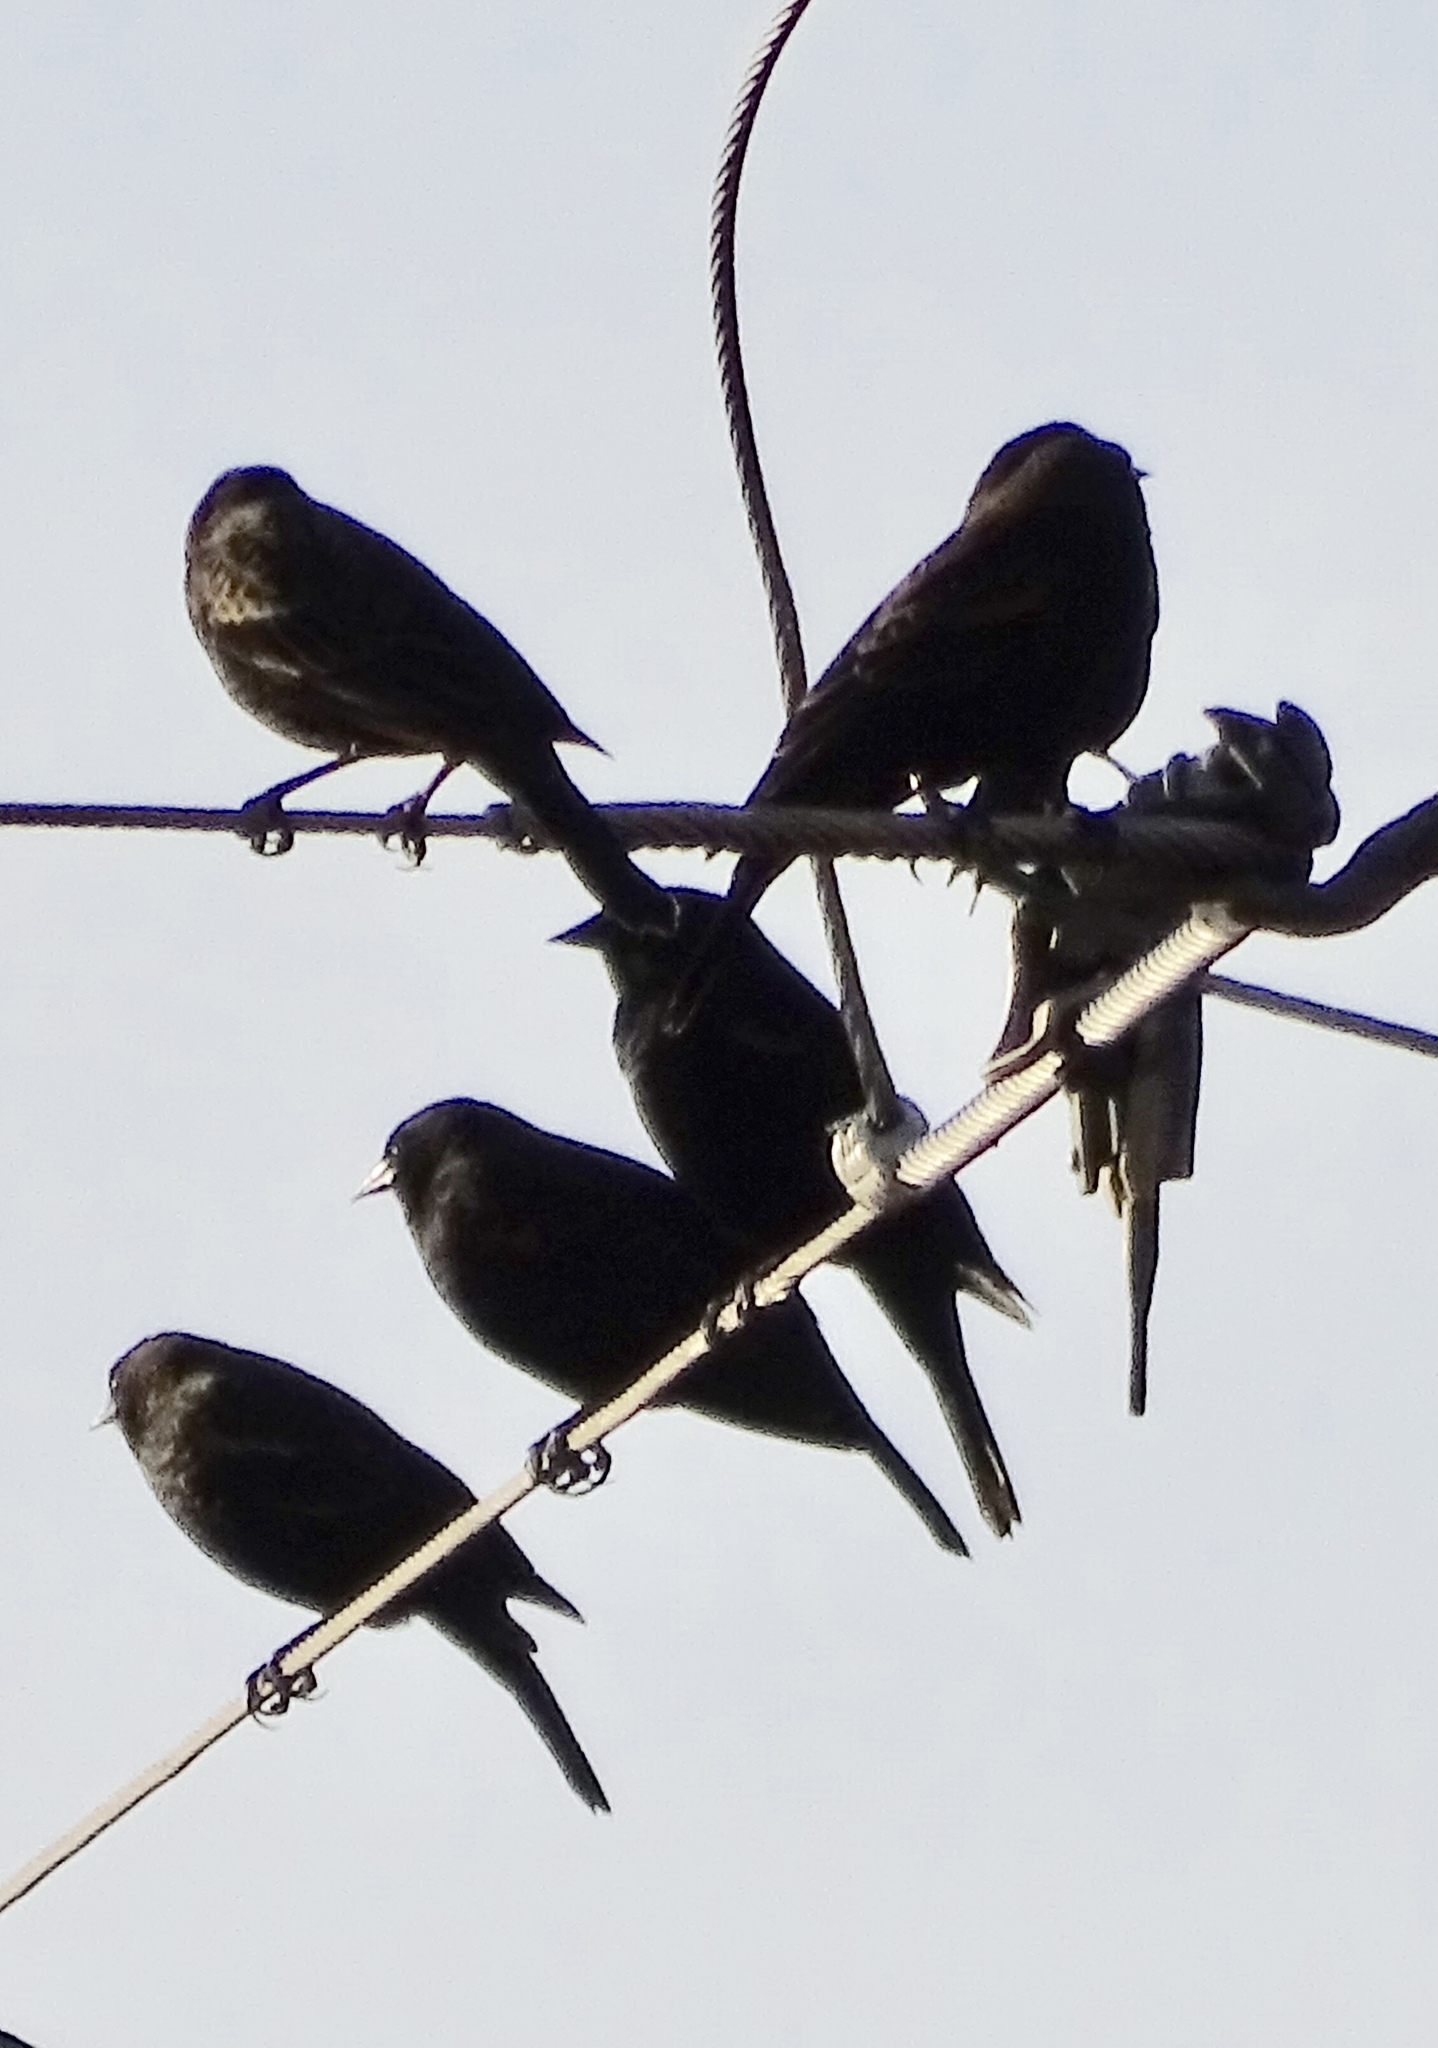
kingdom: Animalia
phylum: Chordata
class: Aves
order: Passeriformes
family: Icteridae
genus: Agelaius
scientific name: Agelaius phoeniceus
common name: Red-winged blackbird
